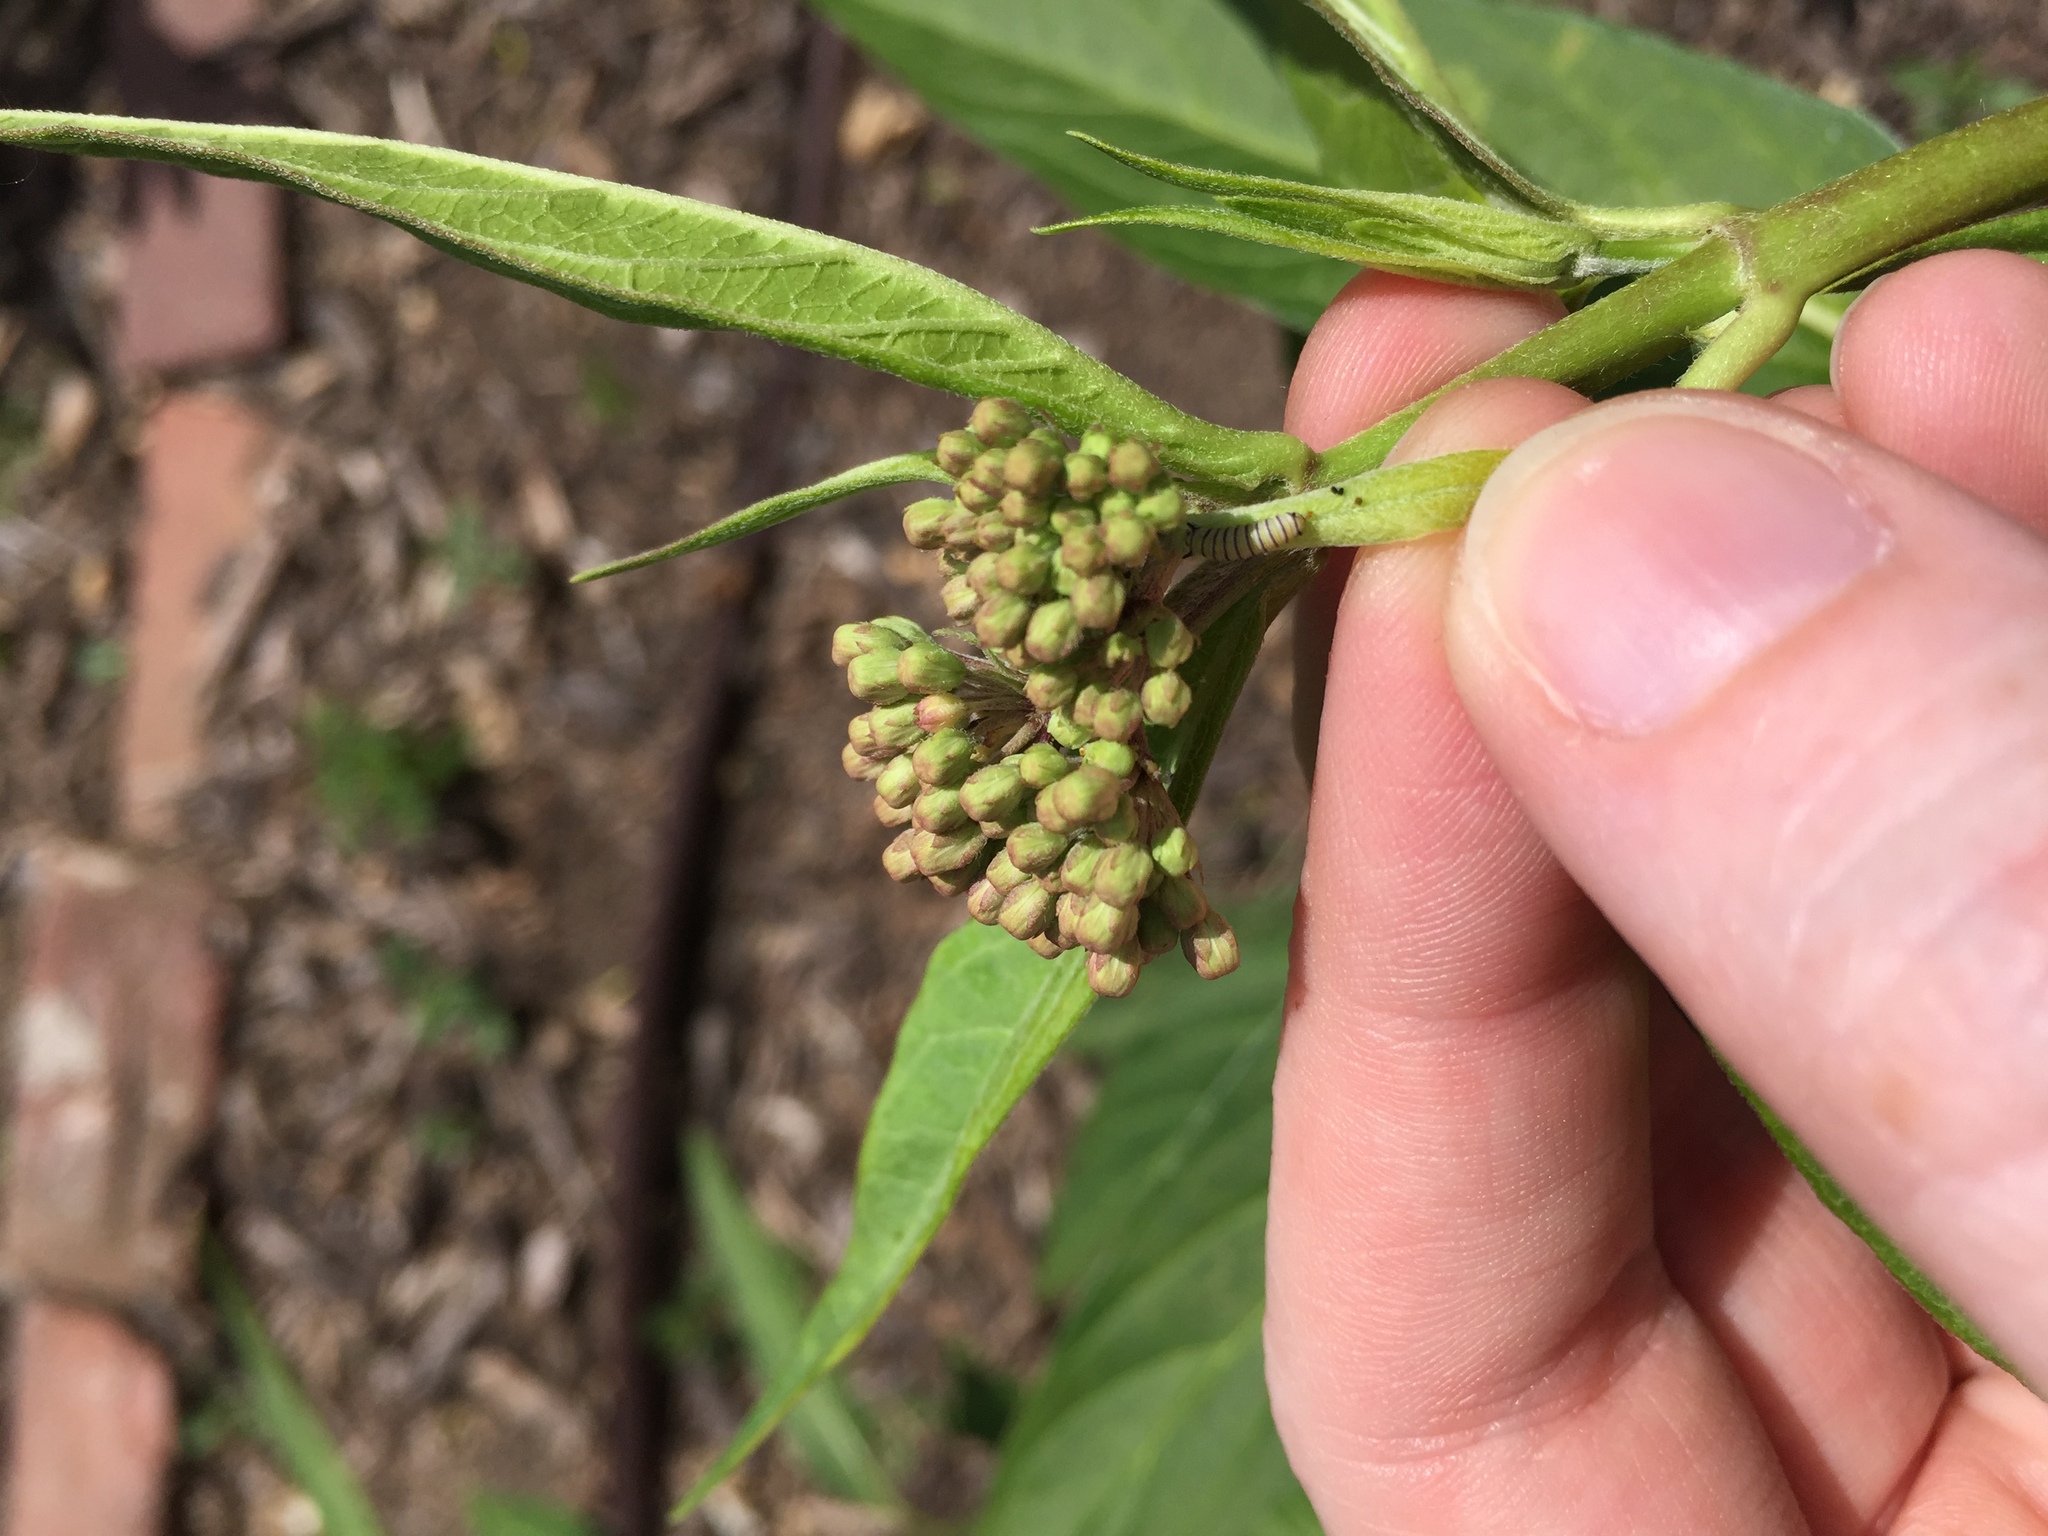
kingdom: Animalia
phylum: Arthropoda
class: Insecta
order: Lepidoptera
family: Nymphalidae
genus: Danaus
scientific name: Danaus plexippus
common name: Monarch
